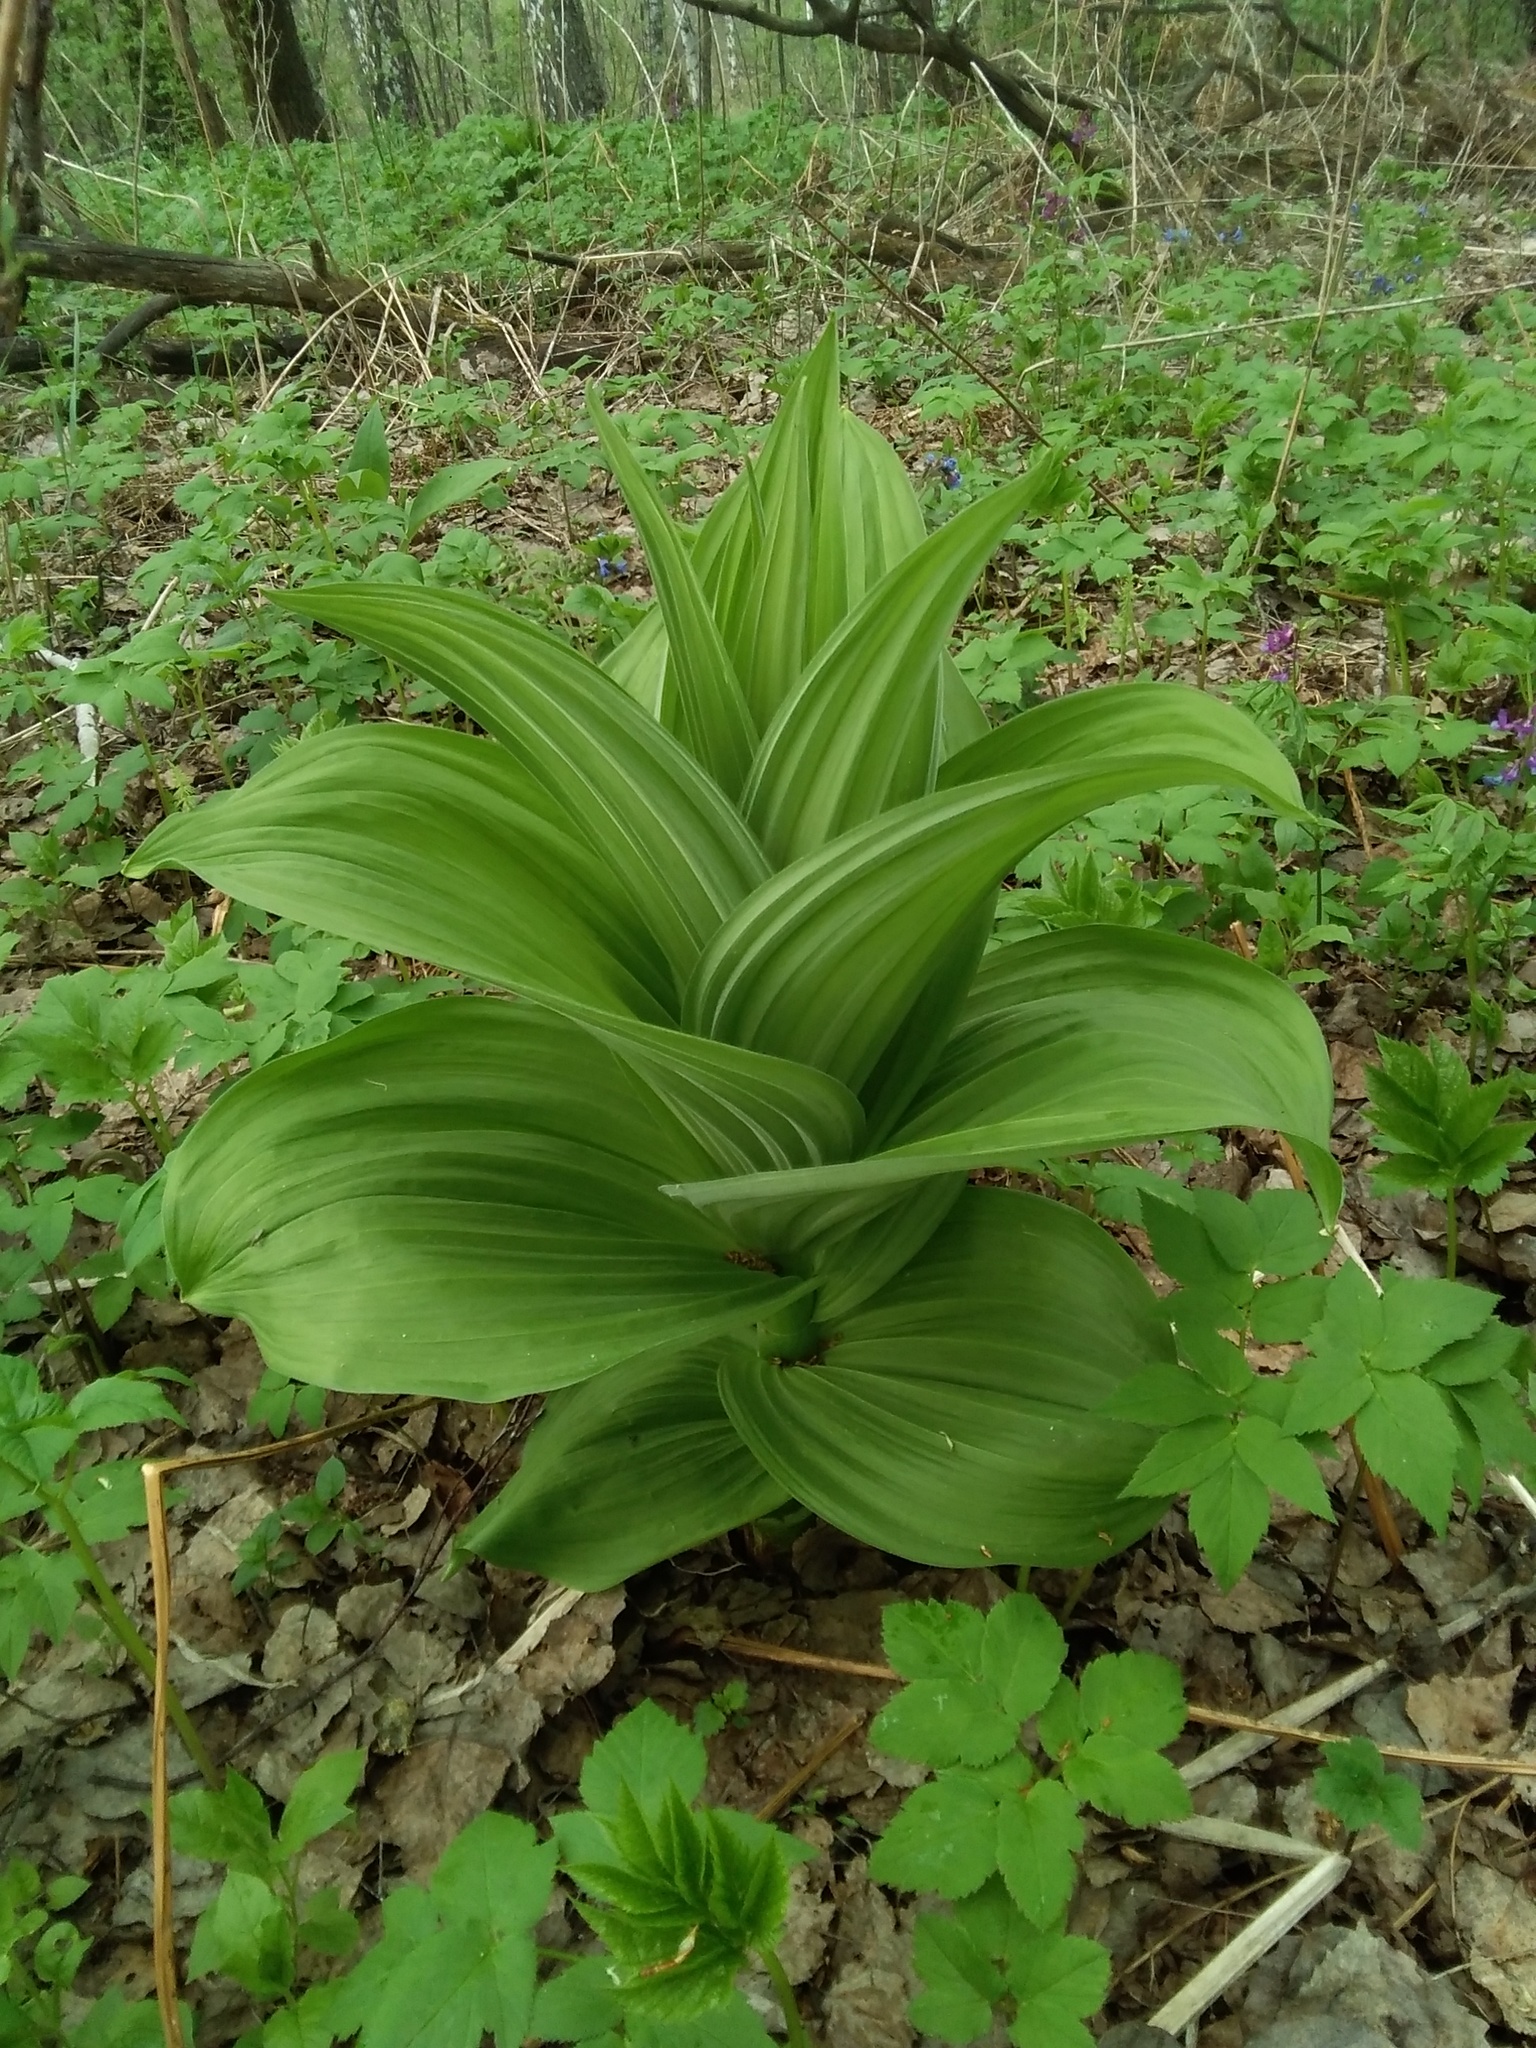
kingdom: Plantae
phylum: Tracheophyta
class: Liliopsida
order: Liliales
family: Melanthiaceae
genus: Veratrum
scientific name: Veratrum lobelianum
